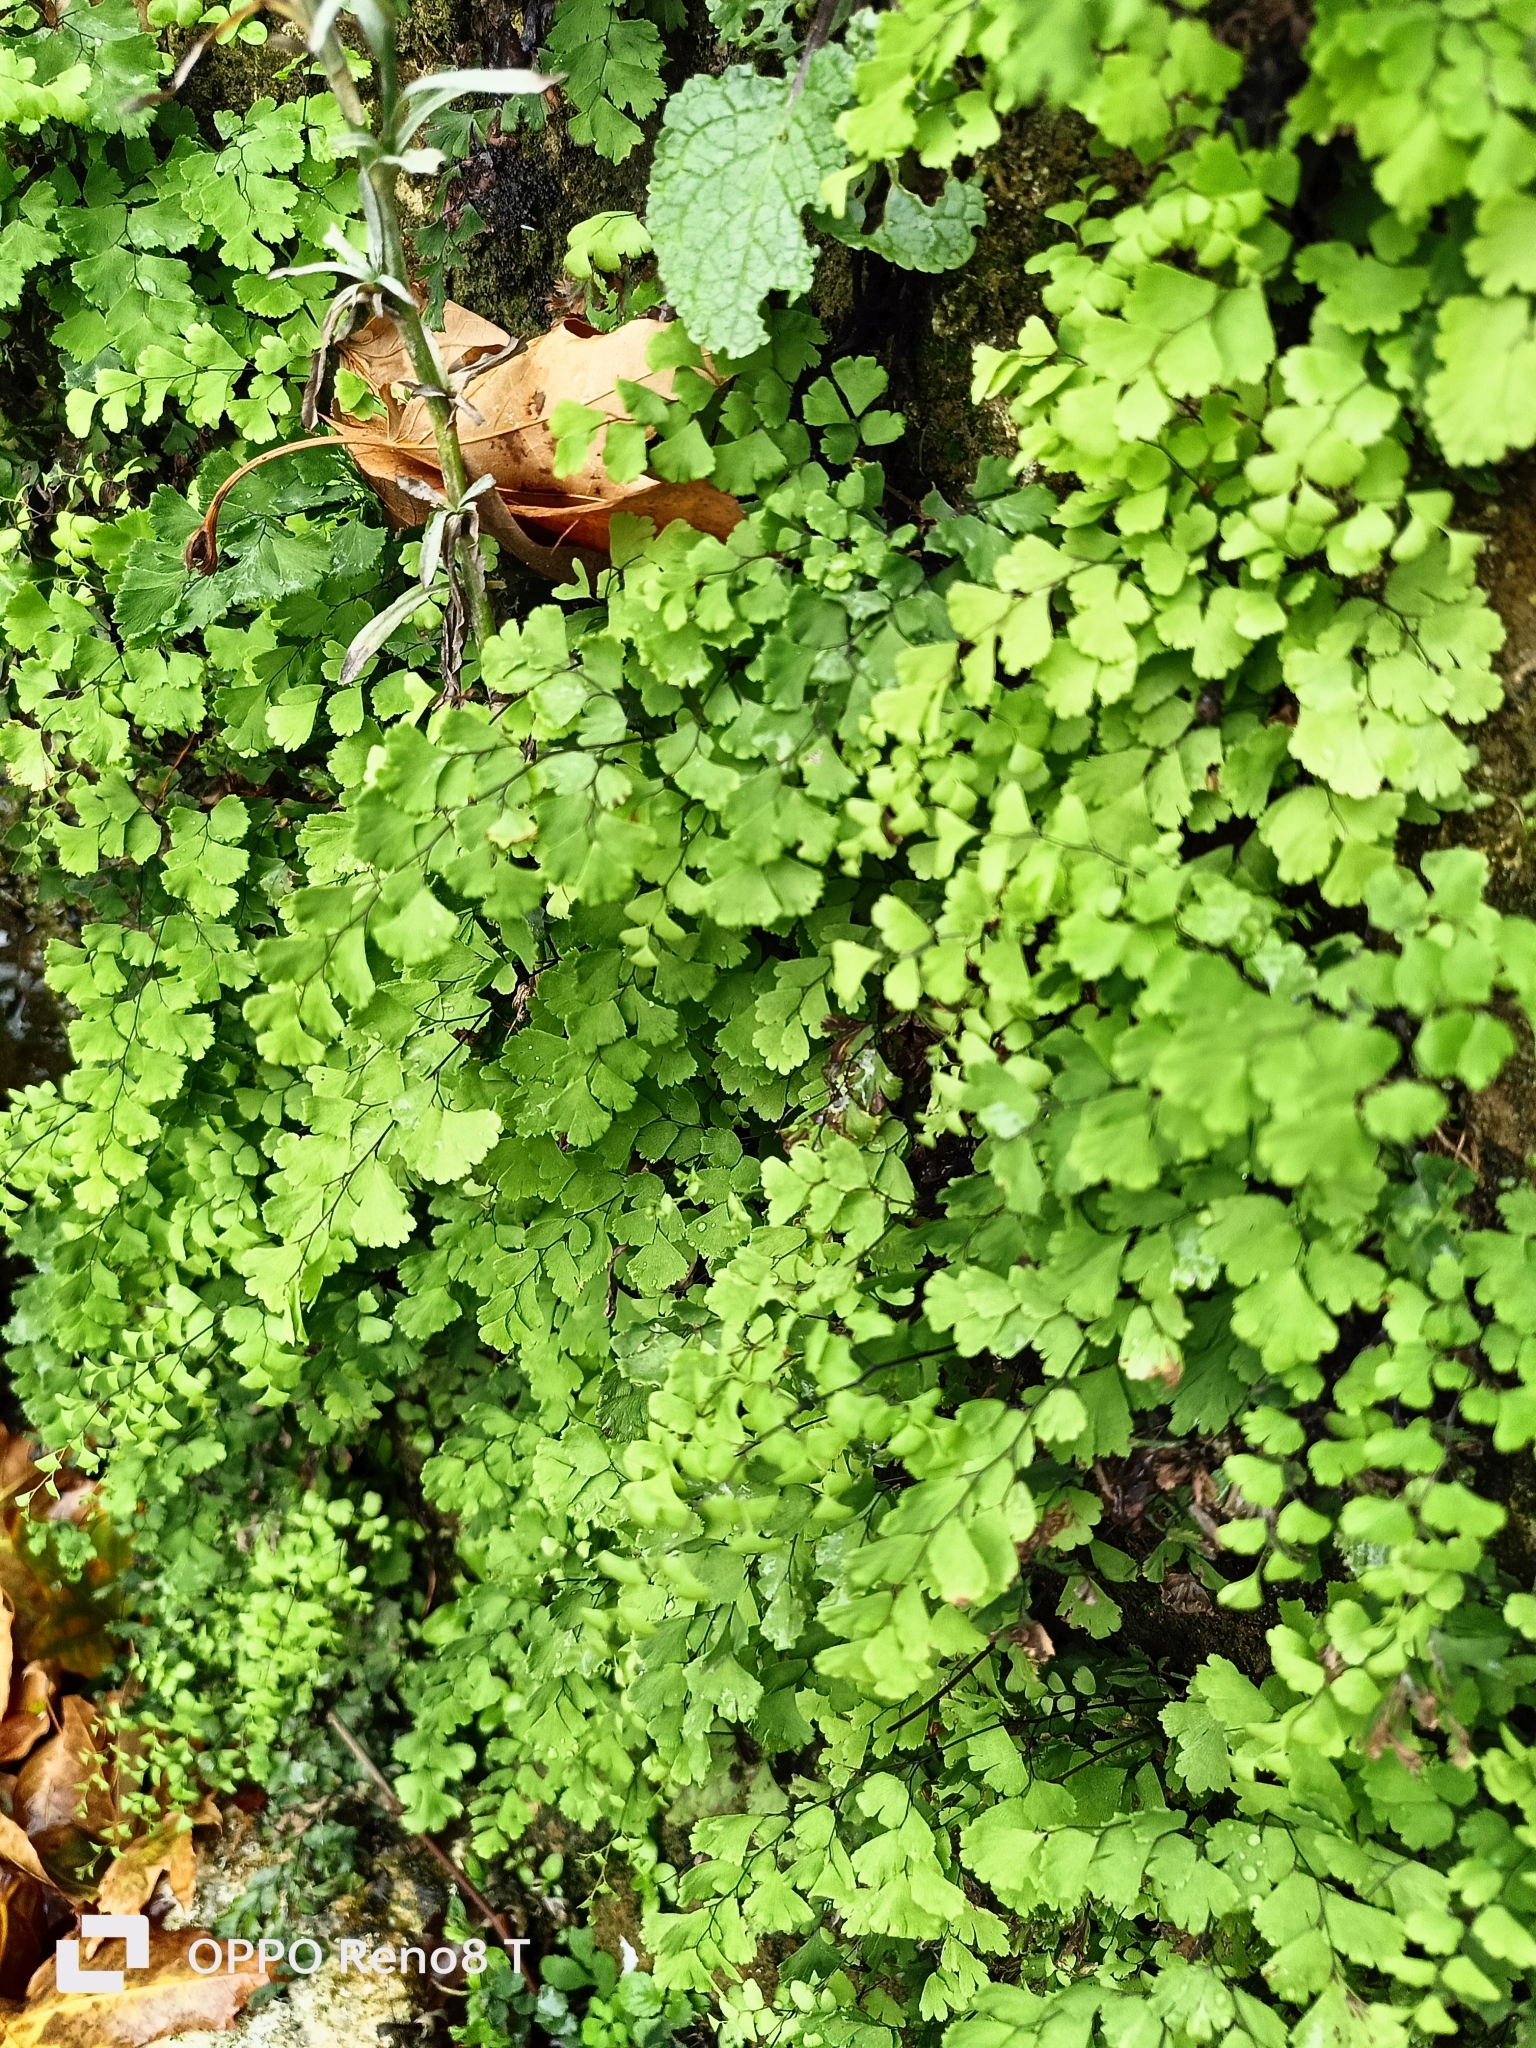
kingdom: Plantae
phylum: Tracheophyta
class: Polypodiopsida
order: Polypodiales
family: Pteridaceae
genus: Adiantum
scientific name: Adiantum capillus-veneris
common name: Maidenhair fern
